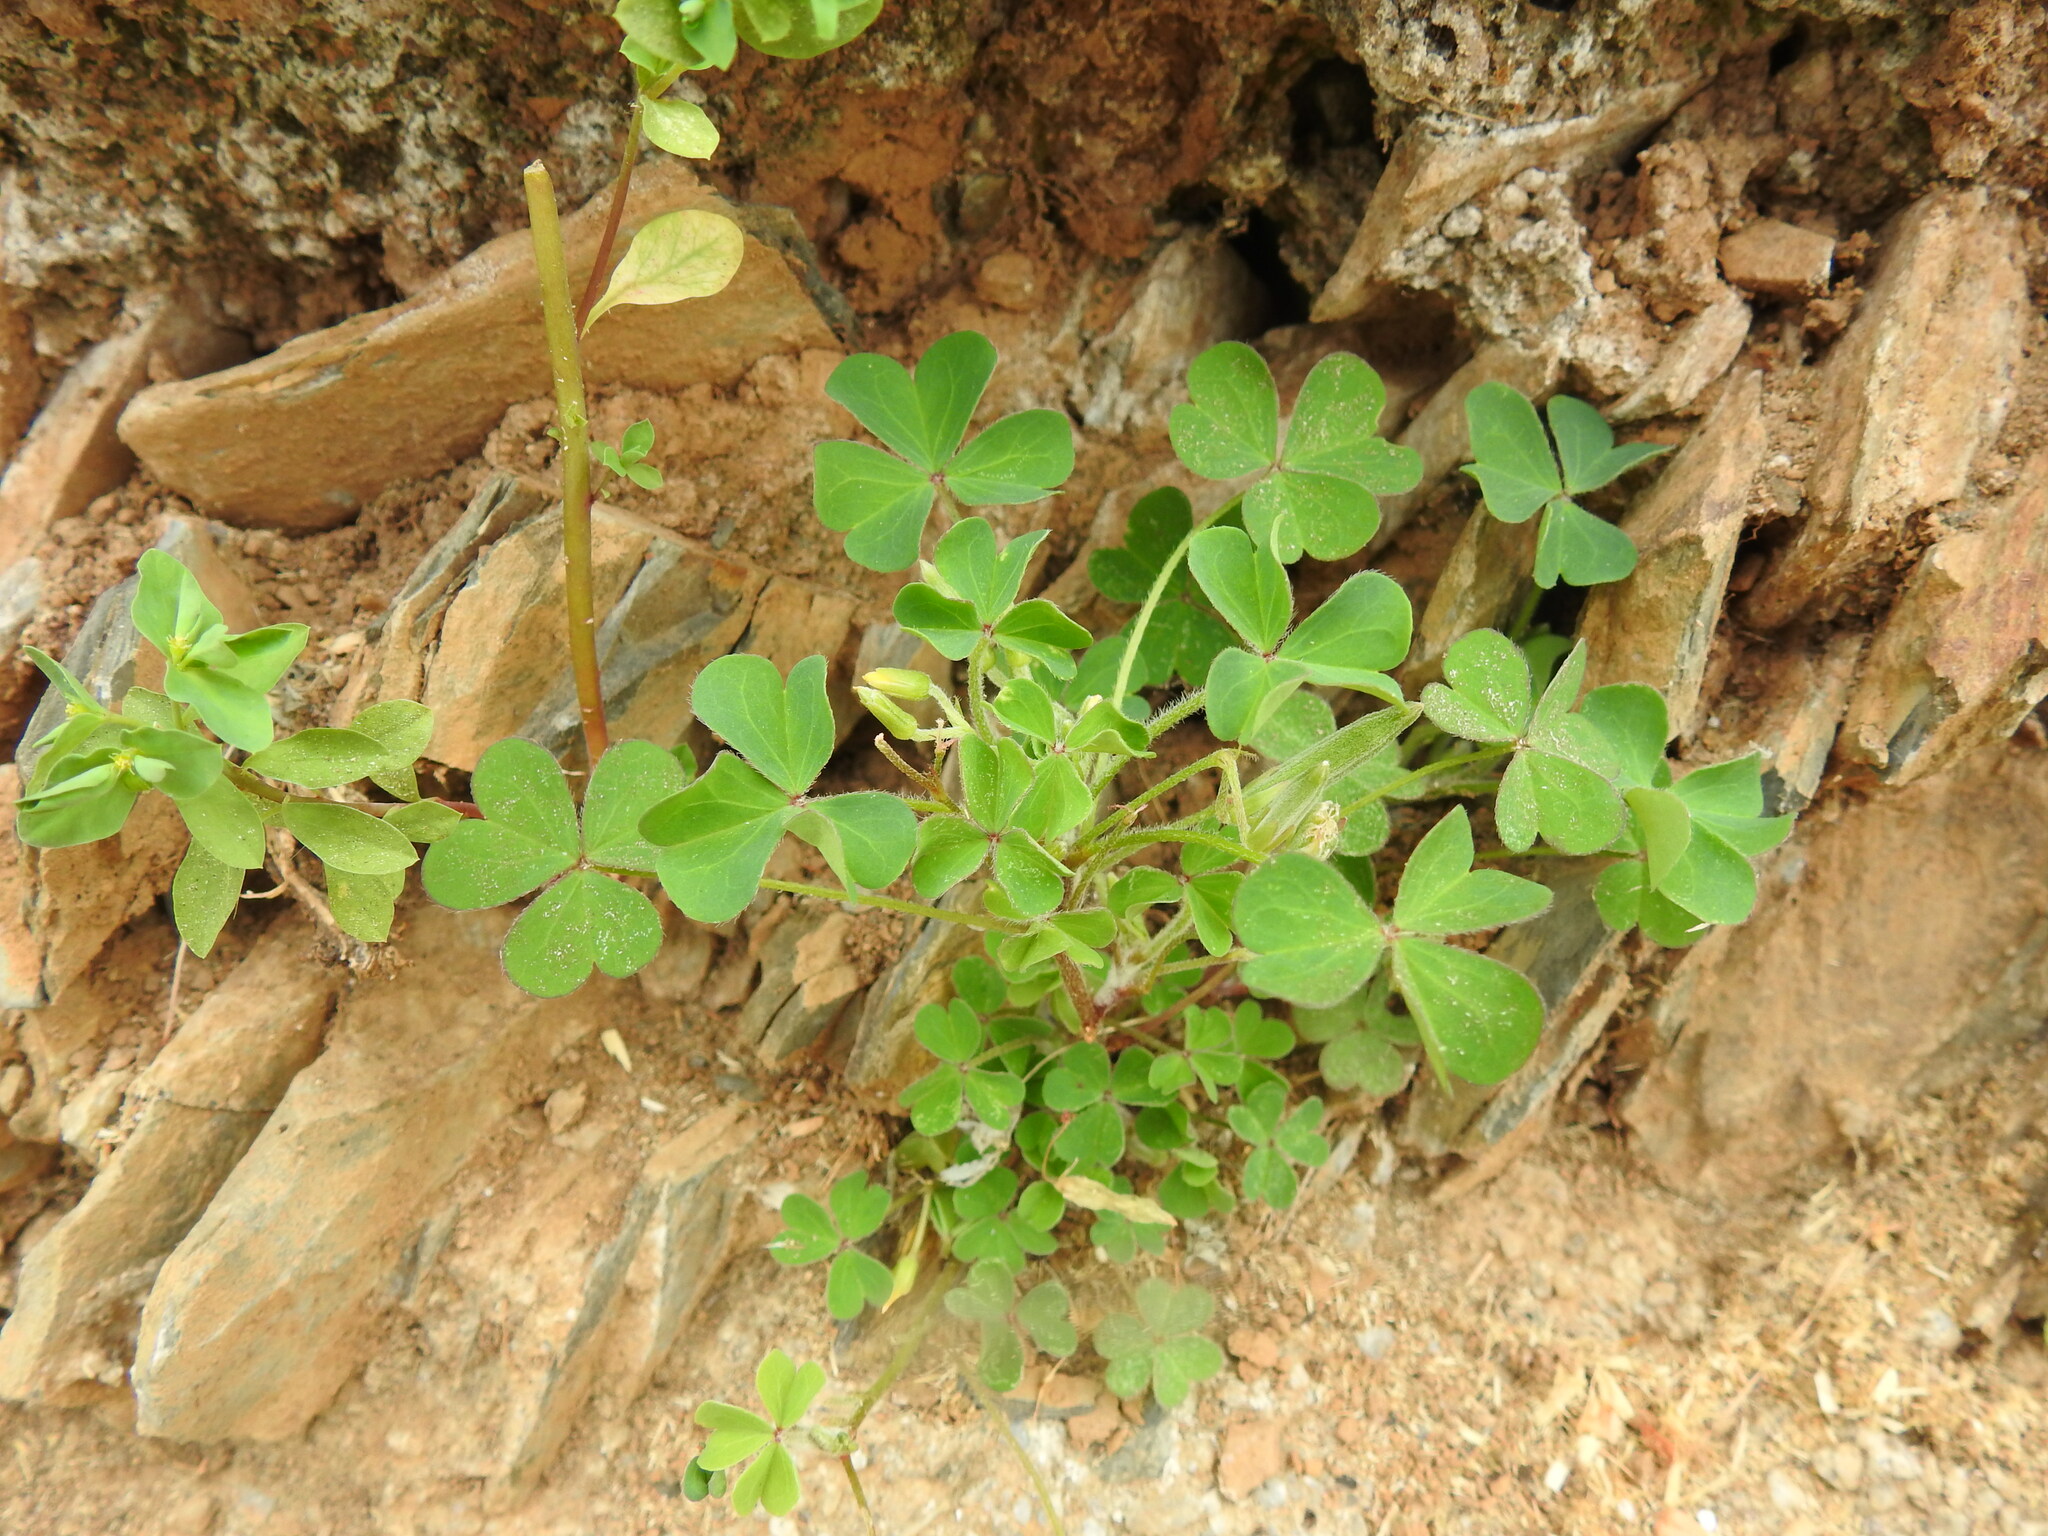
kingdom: Plantae
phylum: Tracheophyta
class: Magnoliopsida
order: Oxalidales
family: Oxalidaceae
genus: Oxalis
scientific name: Oxalis corniculata
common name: Procumbent yellow-sorrel
